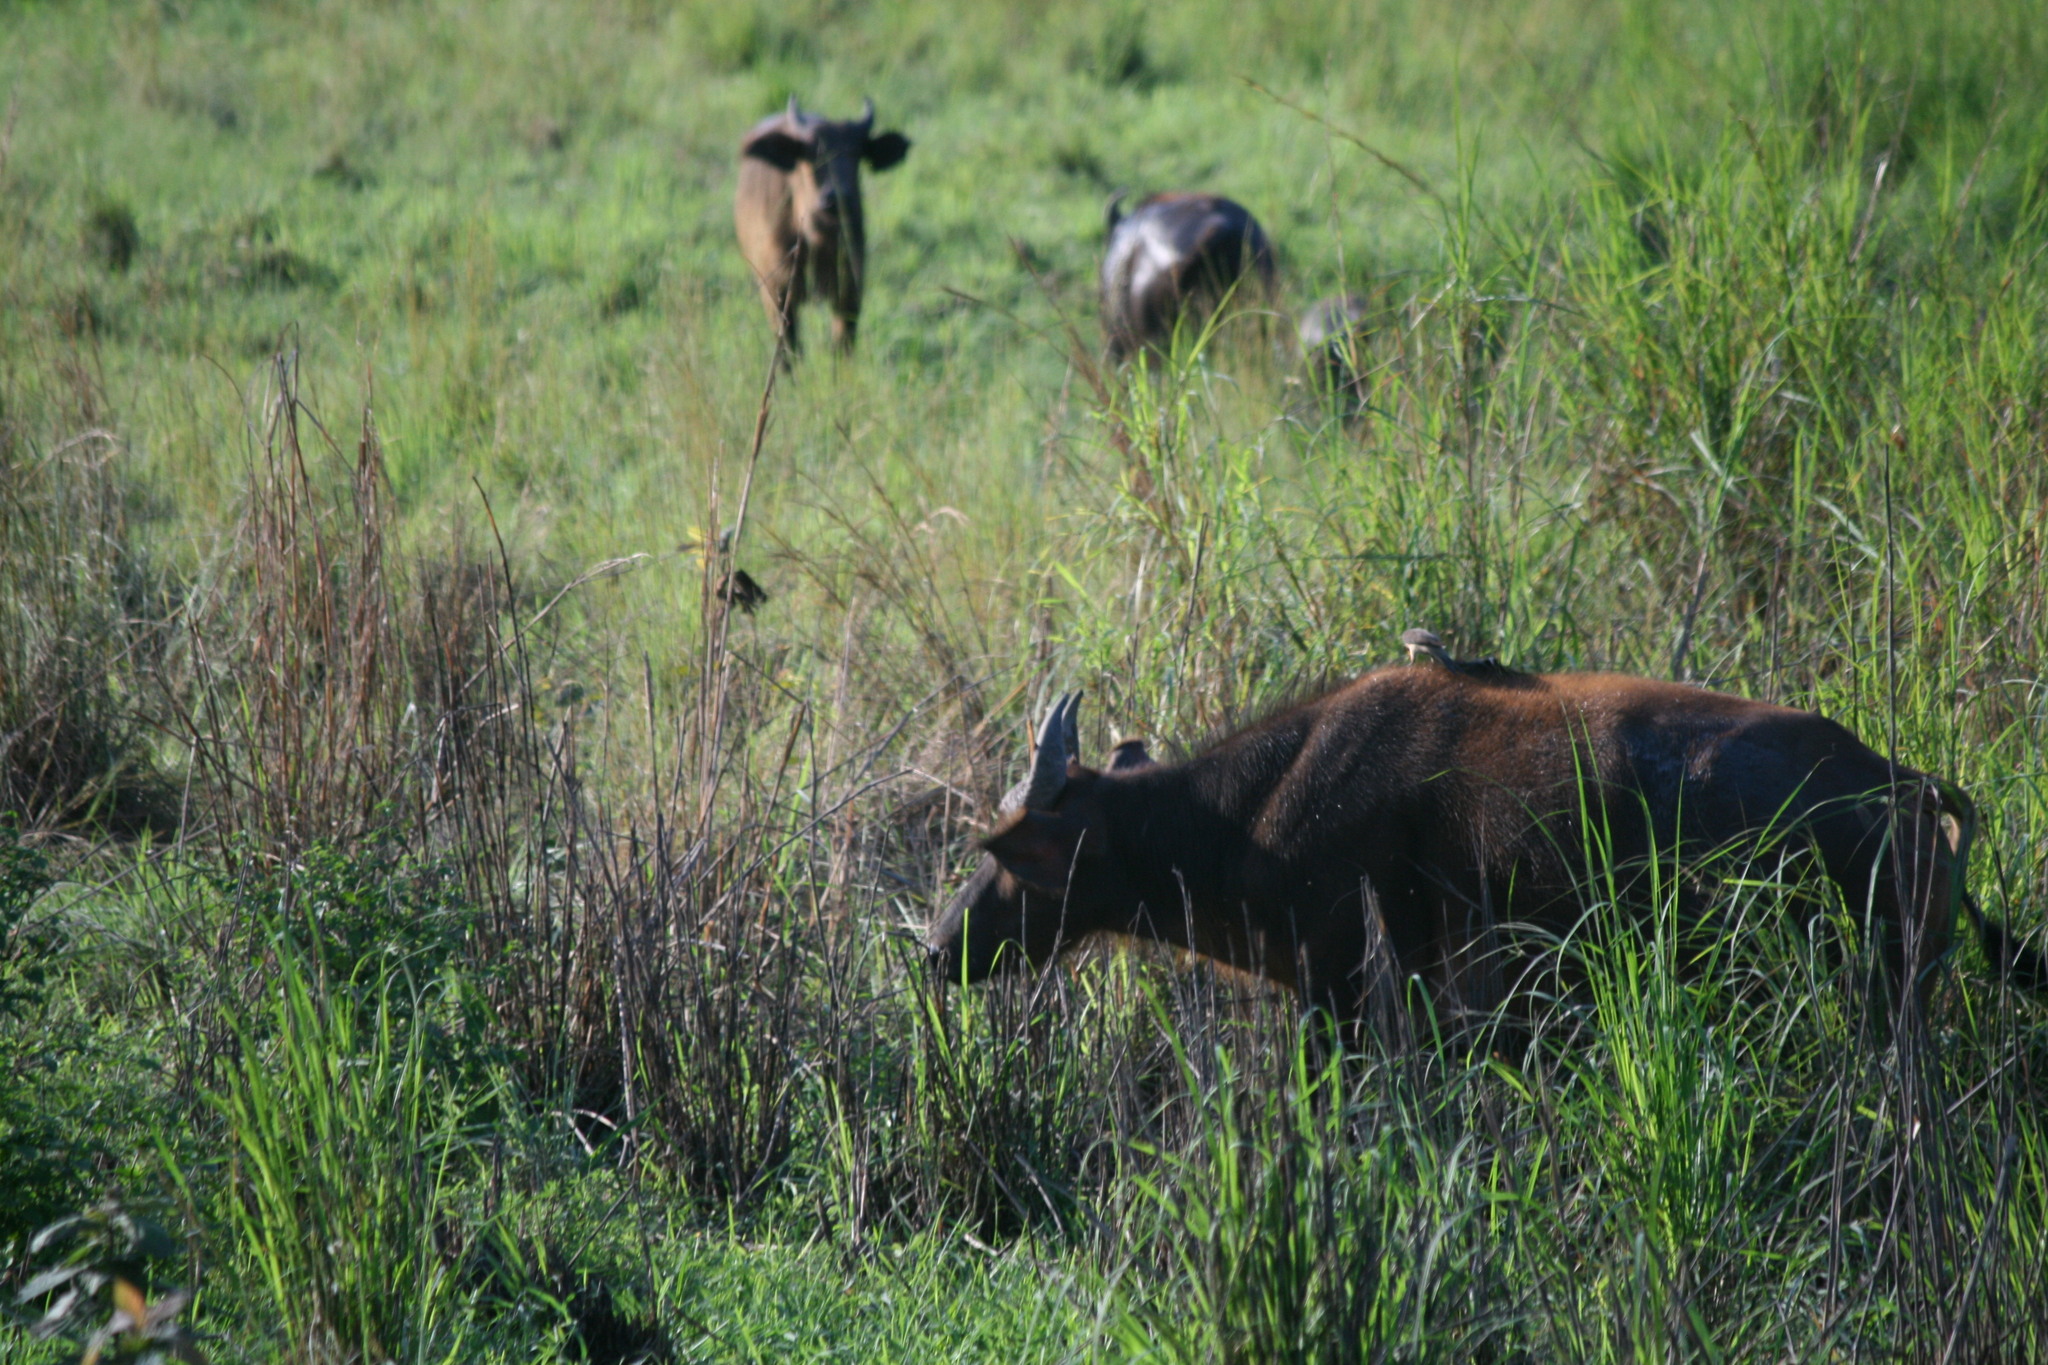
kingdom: Animalia
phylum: Chordata
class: Mammalia
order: Artiodactyla
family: Bovidae
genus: Syncerus
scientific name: Syncerus caffer
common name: African buffalo
